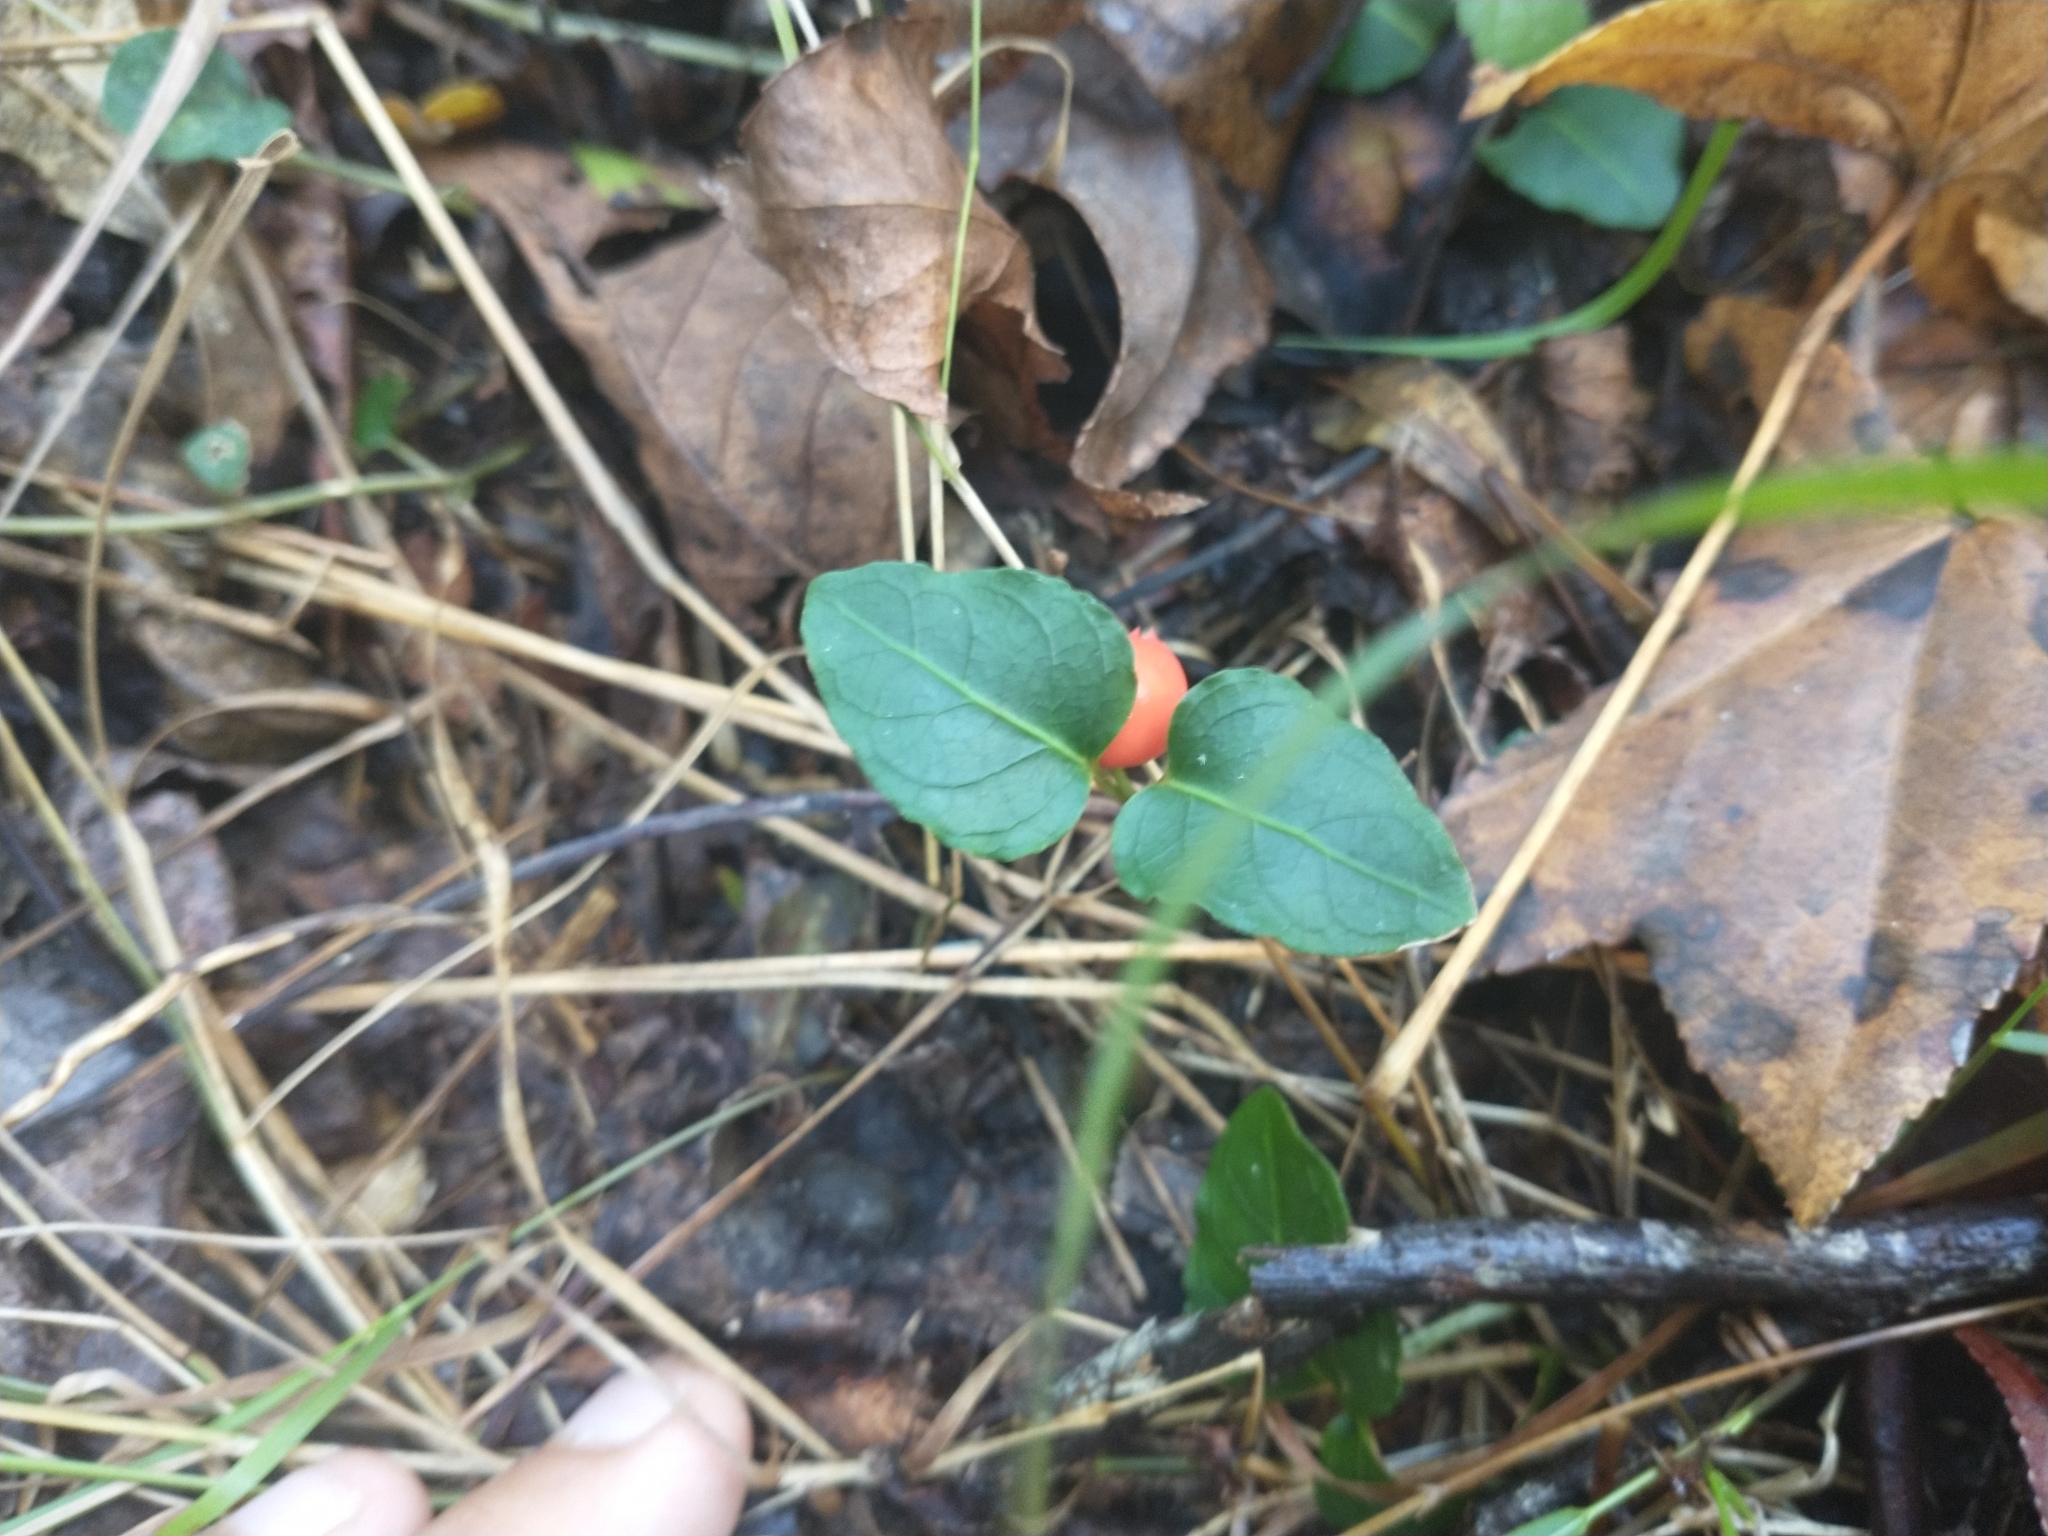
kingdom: Plantae
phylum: Tracheophyta
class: Magnoliopsida
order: Gentianales
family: Rubiaceae
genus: Mitchella
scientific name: Mitchella repens
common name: Partridge-berry
